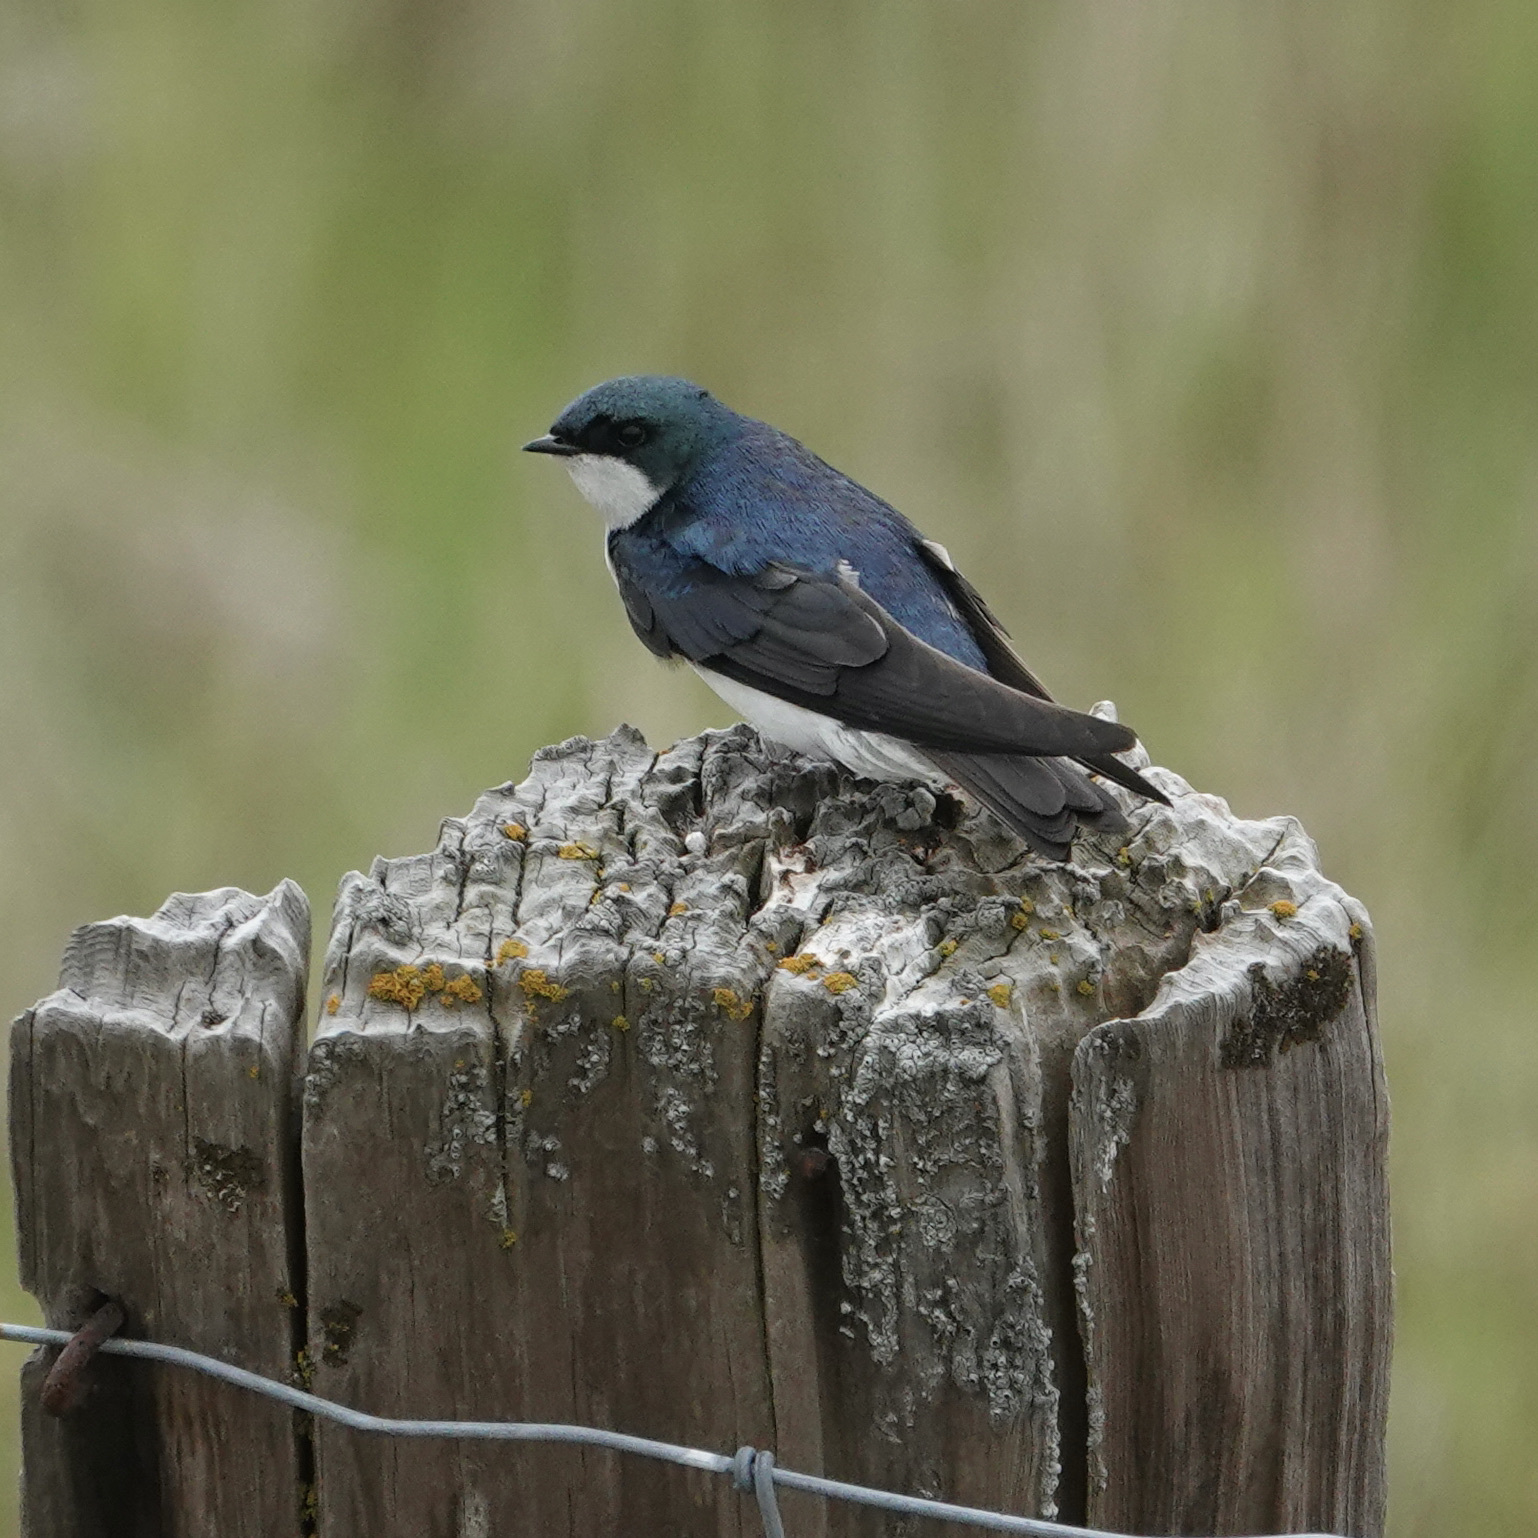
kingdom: Animalia
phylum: Chordata
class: Aves
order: Passeriformes
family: Hirundinidae
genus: Tachycineta
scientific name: Tachycineta bicolor
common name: Tree swallow
